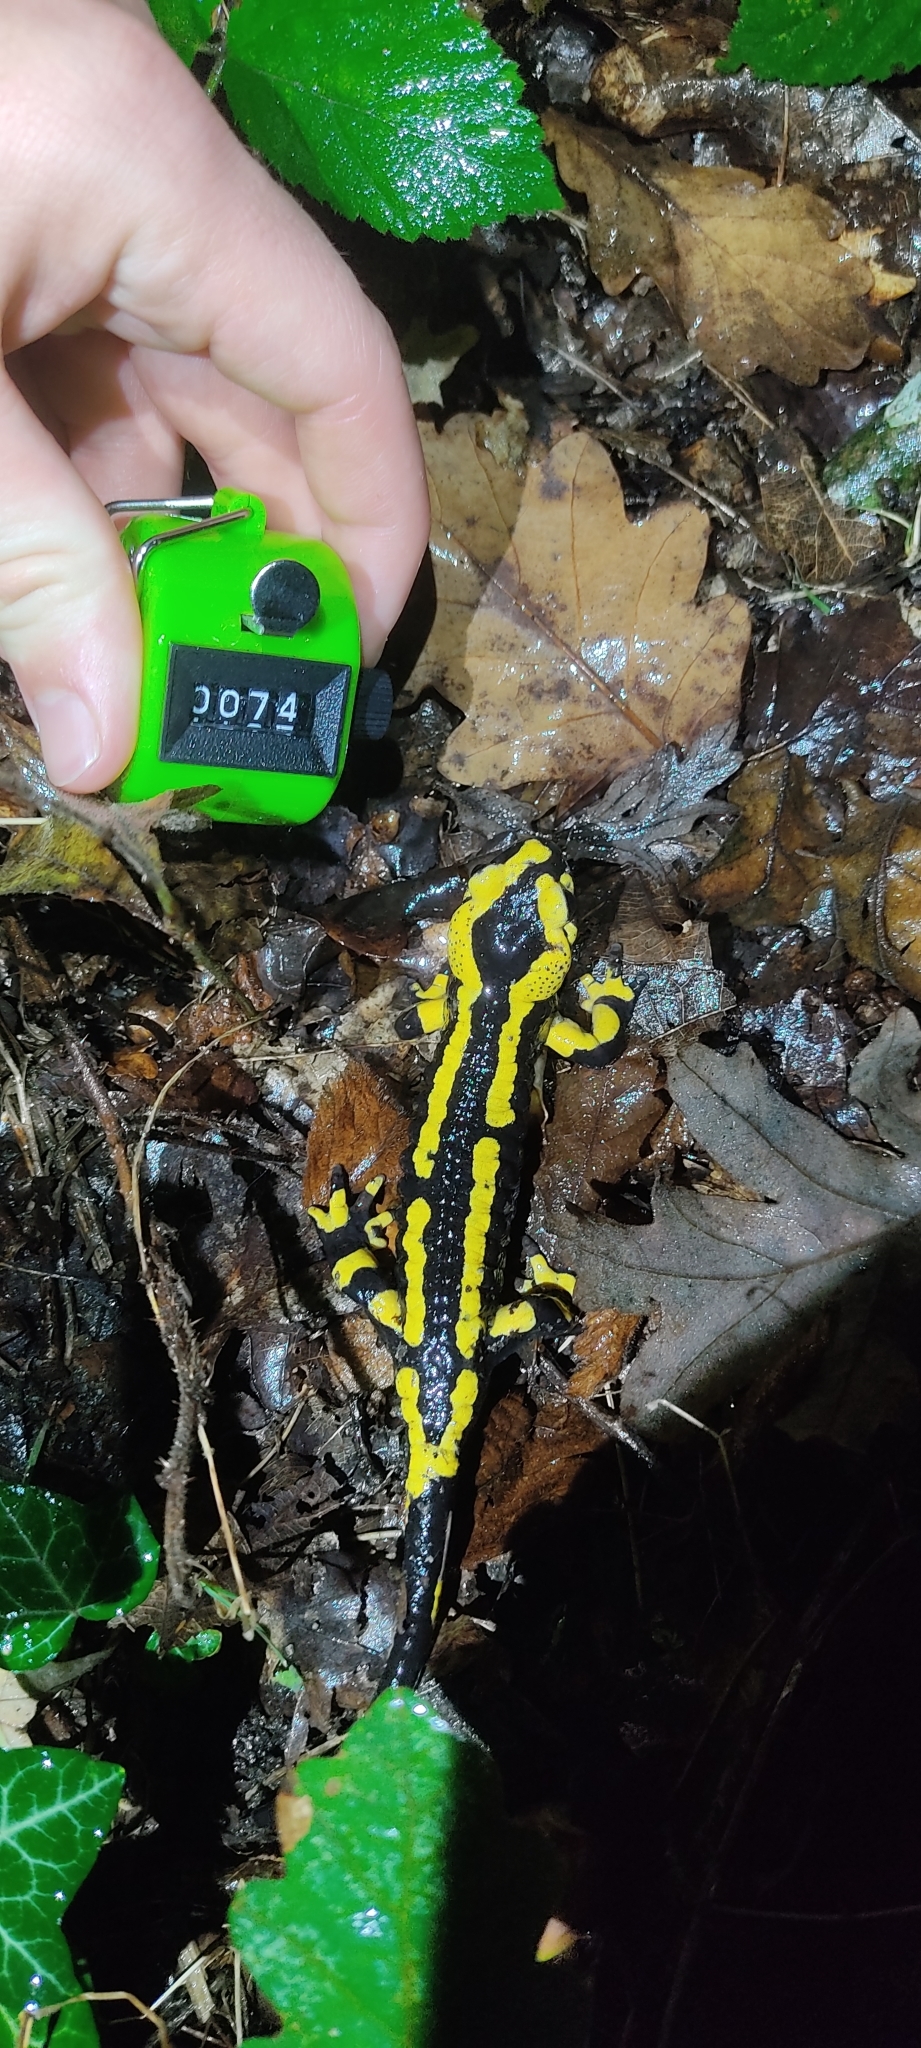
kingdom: Animalia
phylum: Chordata
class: Amphibia
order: Caudata
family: Salamandridae
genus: Salamandra
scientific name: Salamandra salamandra
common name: Fire salamander
